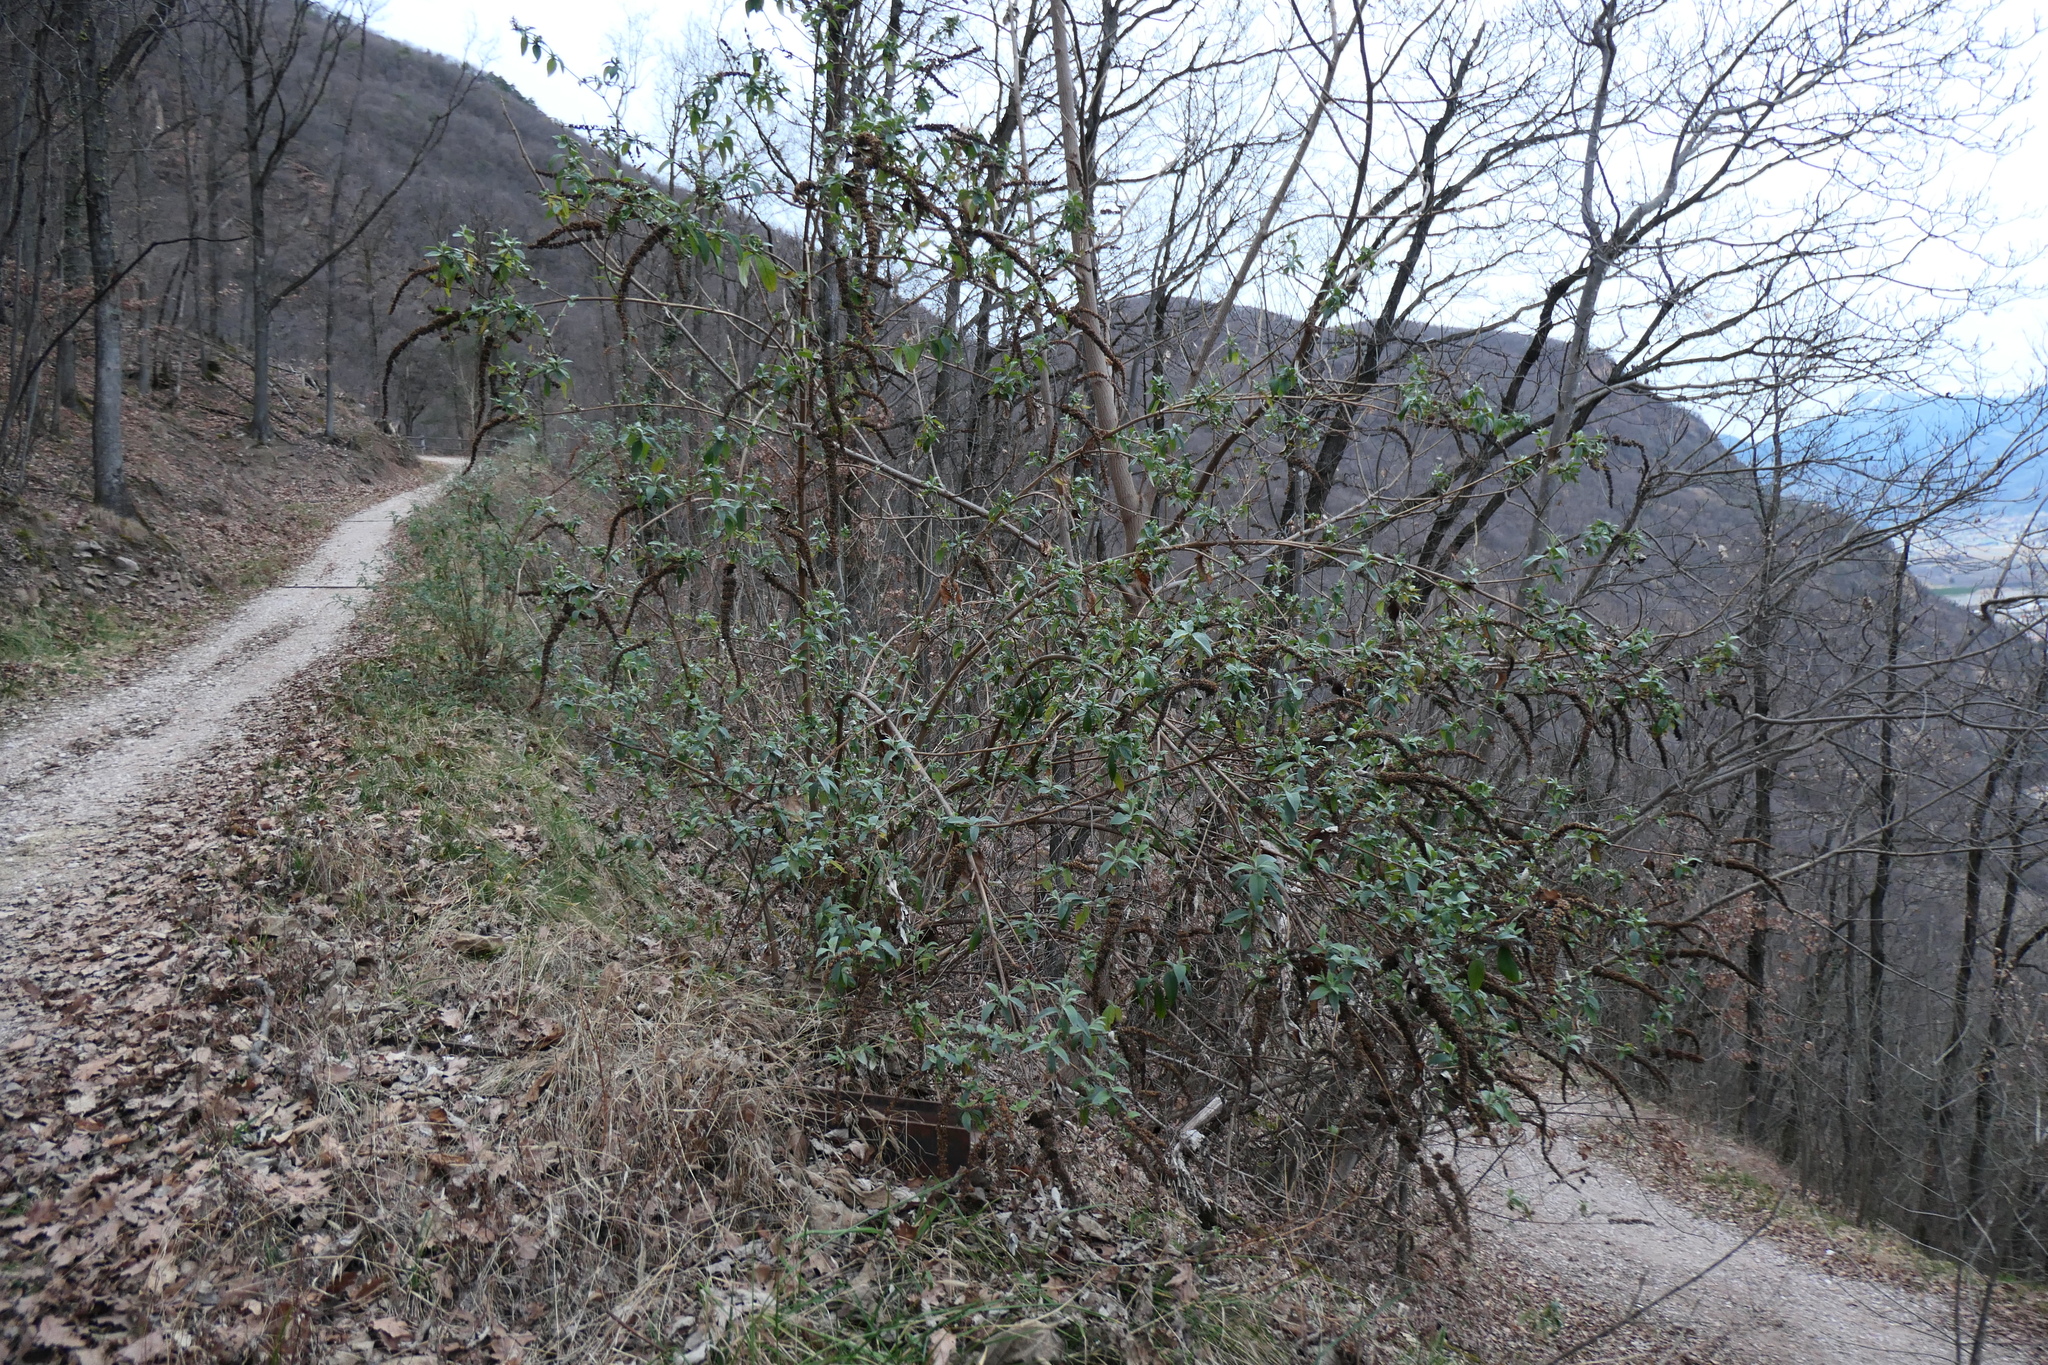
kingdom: Plantae
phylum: Tracheophyta
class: Magnoliopsida
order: Lamiales
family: Scrophulariaceae
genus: Buddleja
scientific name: Buddleja davidii
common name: Butterfly-bush
